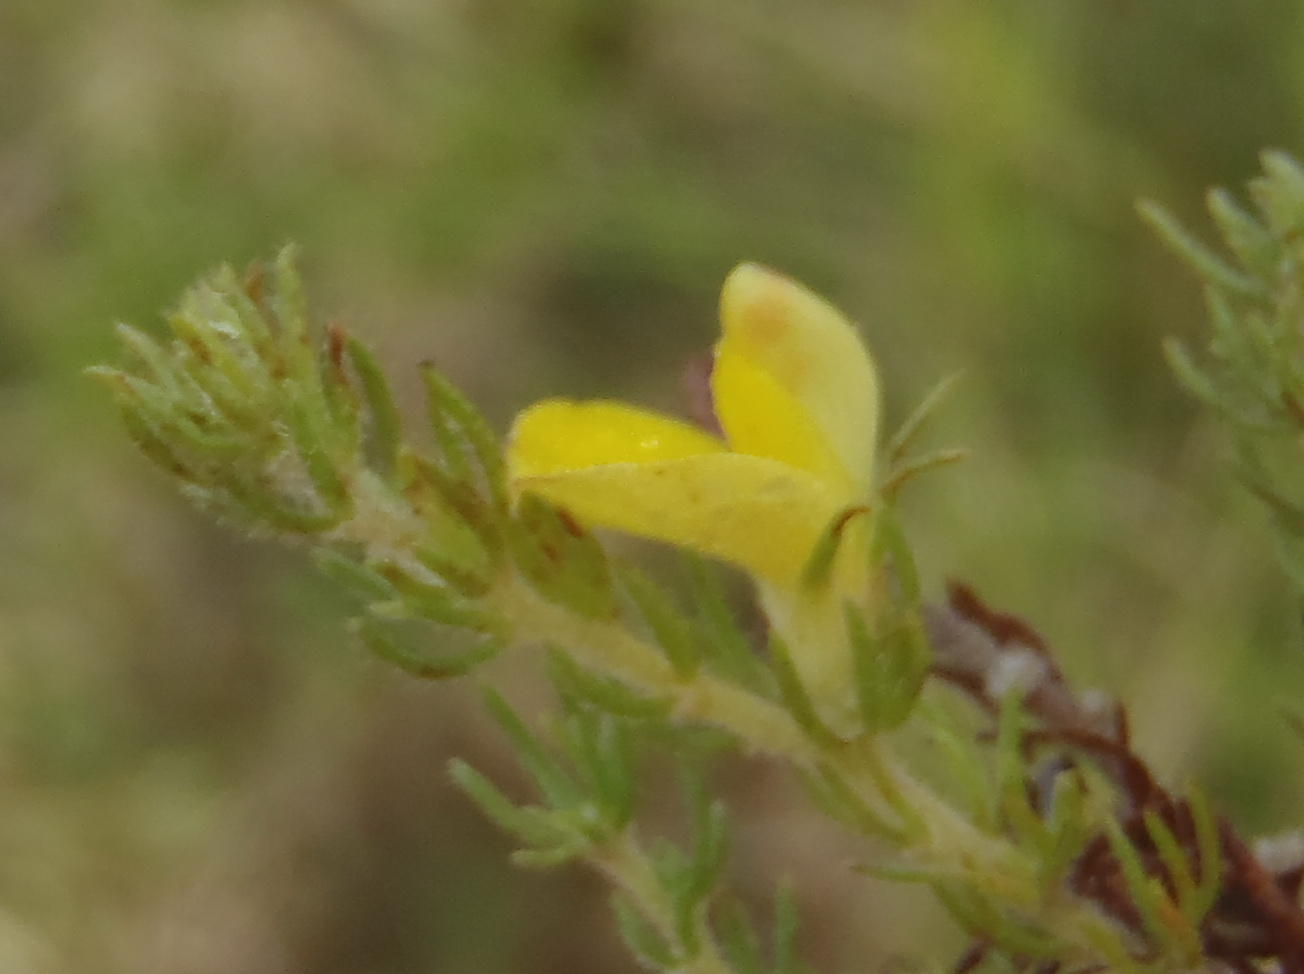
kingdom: Plantae
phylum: Tracheophyta
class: Magnoliopsida
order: Fabales
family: Fabaceae
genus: Aspalathus
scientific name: Aspalathus asparagoides
